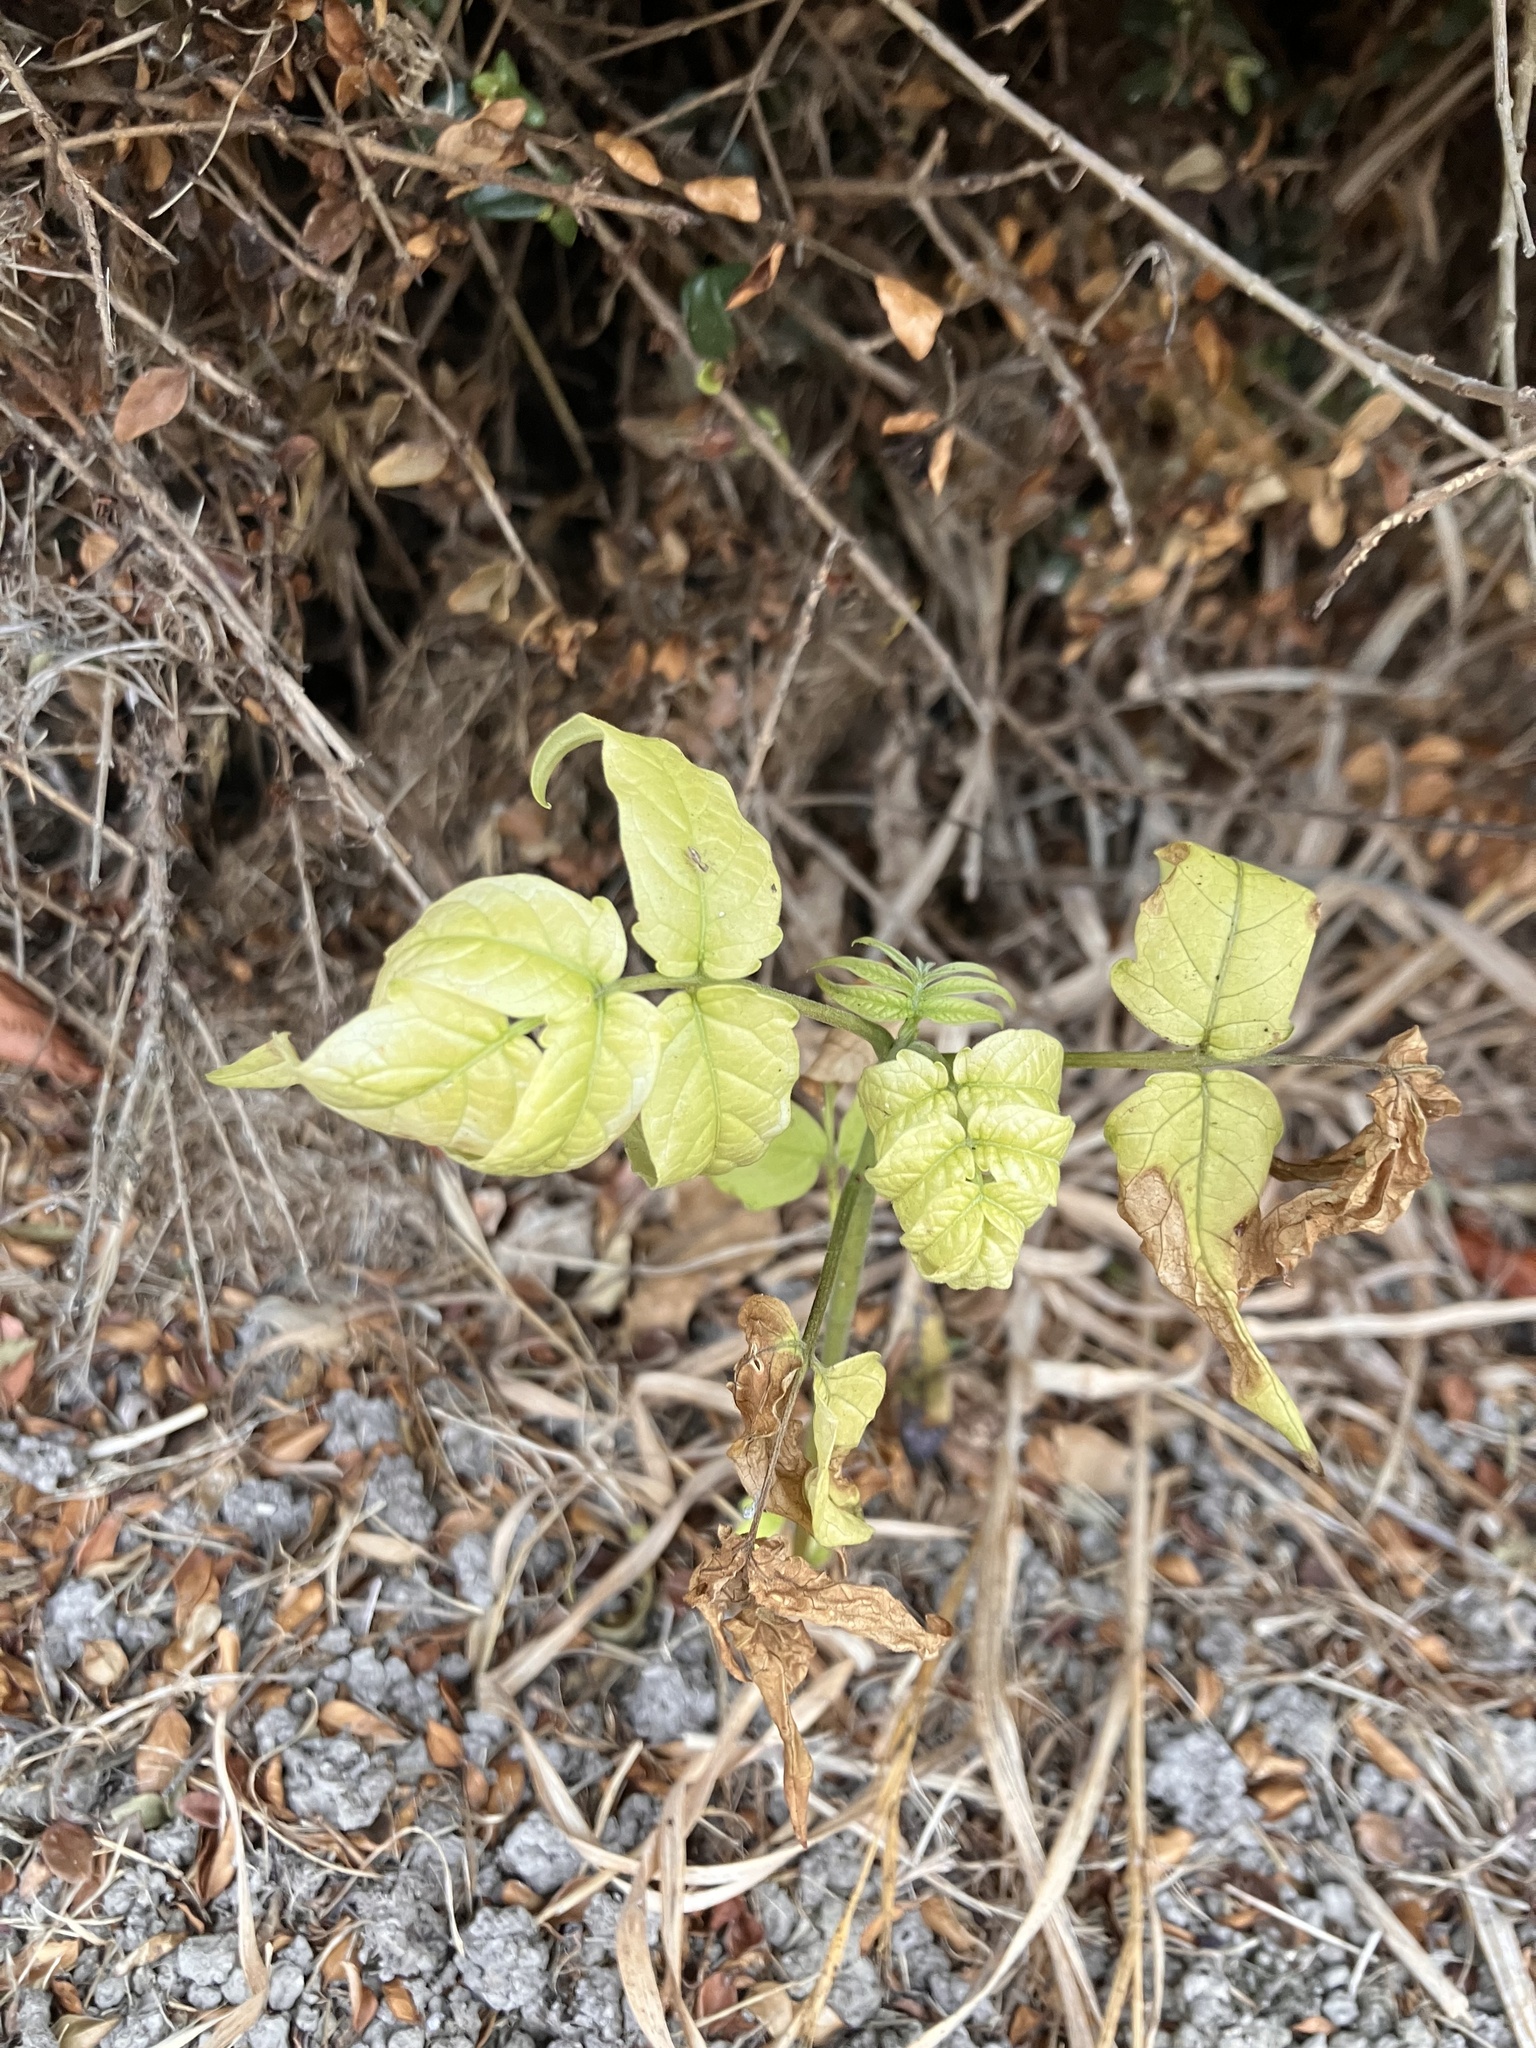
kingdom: Plantae
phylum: Tracheophyta
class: Magnoliopsida
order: Sapindales
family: Simaroubaceae
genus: Ailanthus
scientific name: Ailanthus altissima
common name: Tree-of-heaven
